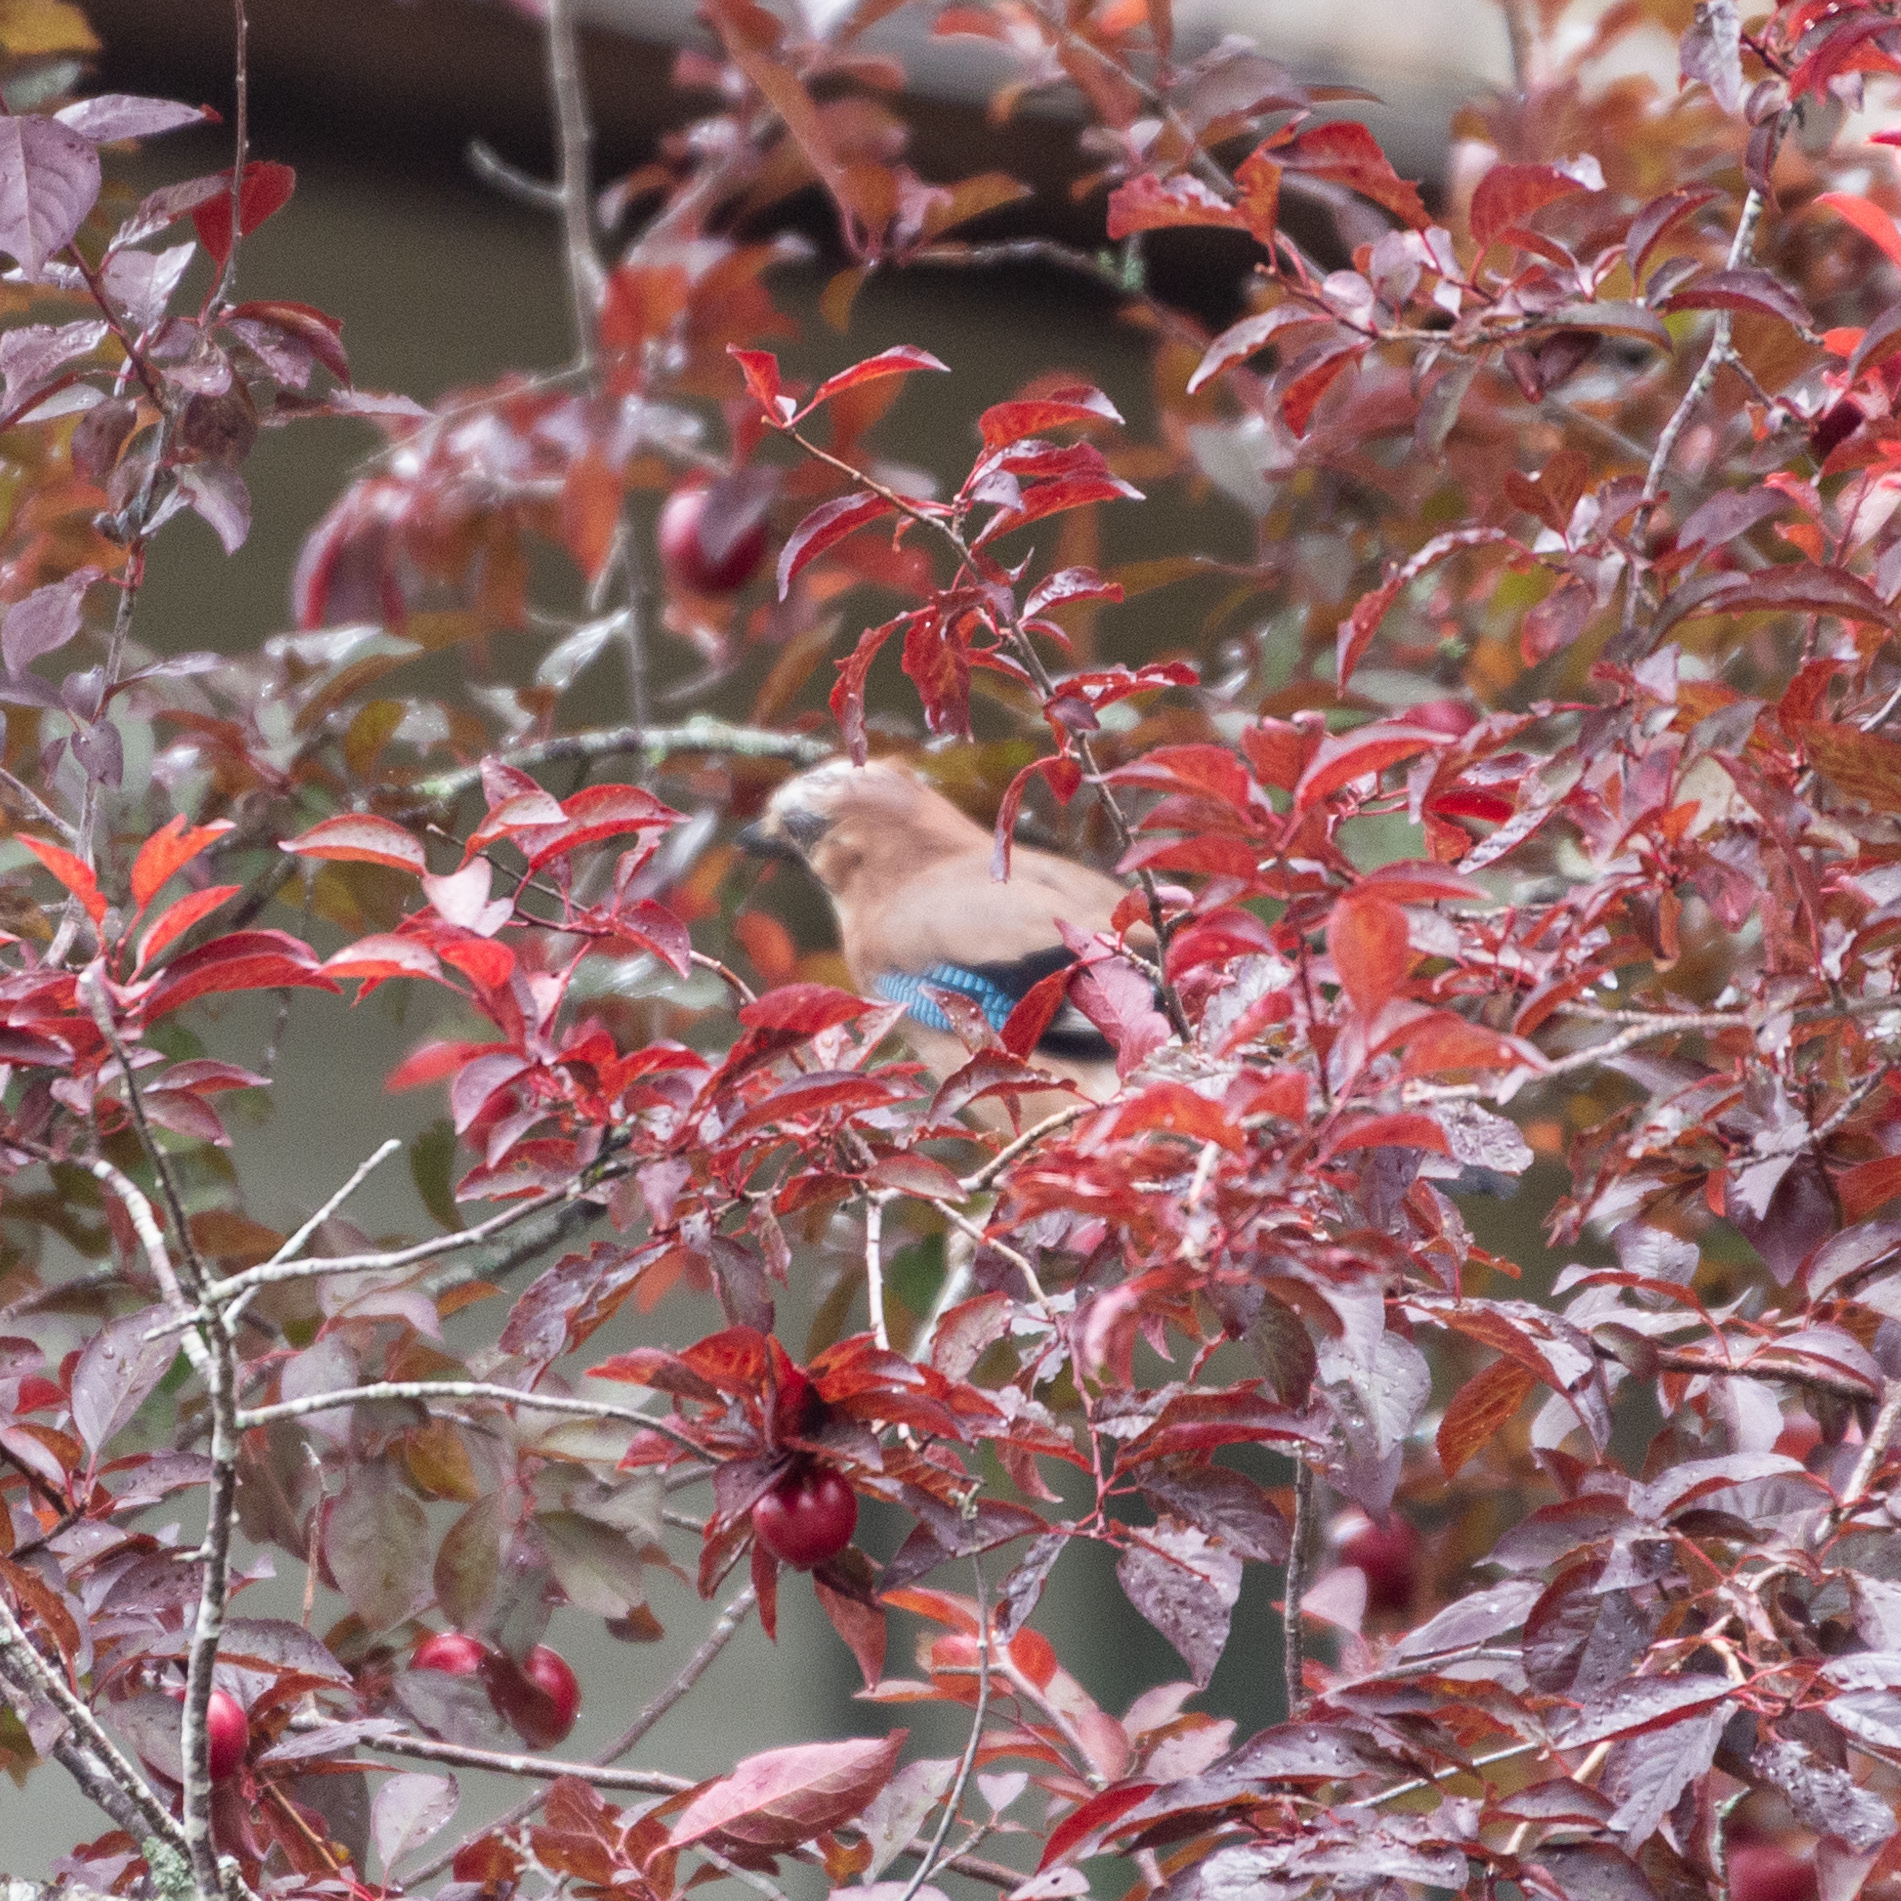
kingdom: Animalia
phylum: Chordata
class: Aves
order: Passeriformes
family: Corvidae
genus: Garrulus
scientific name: Garrulus glandarius
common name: Eurasian jay
